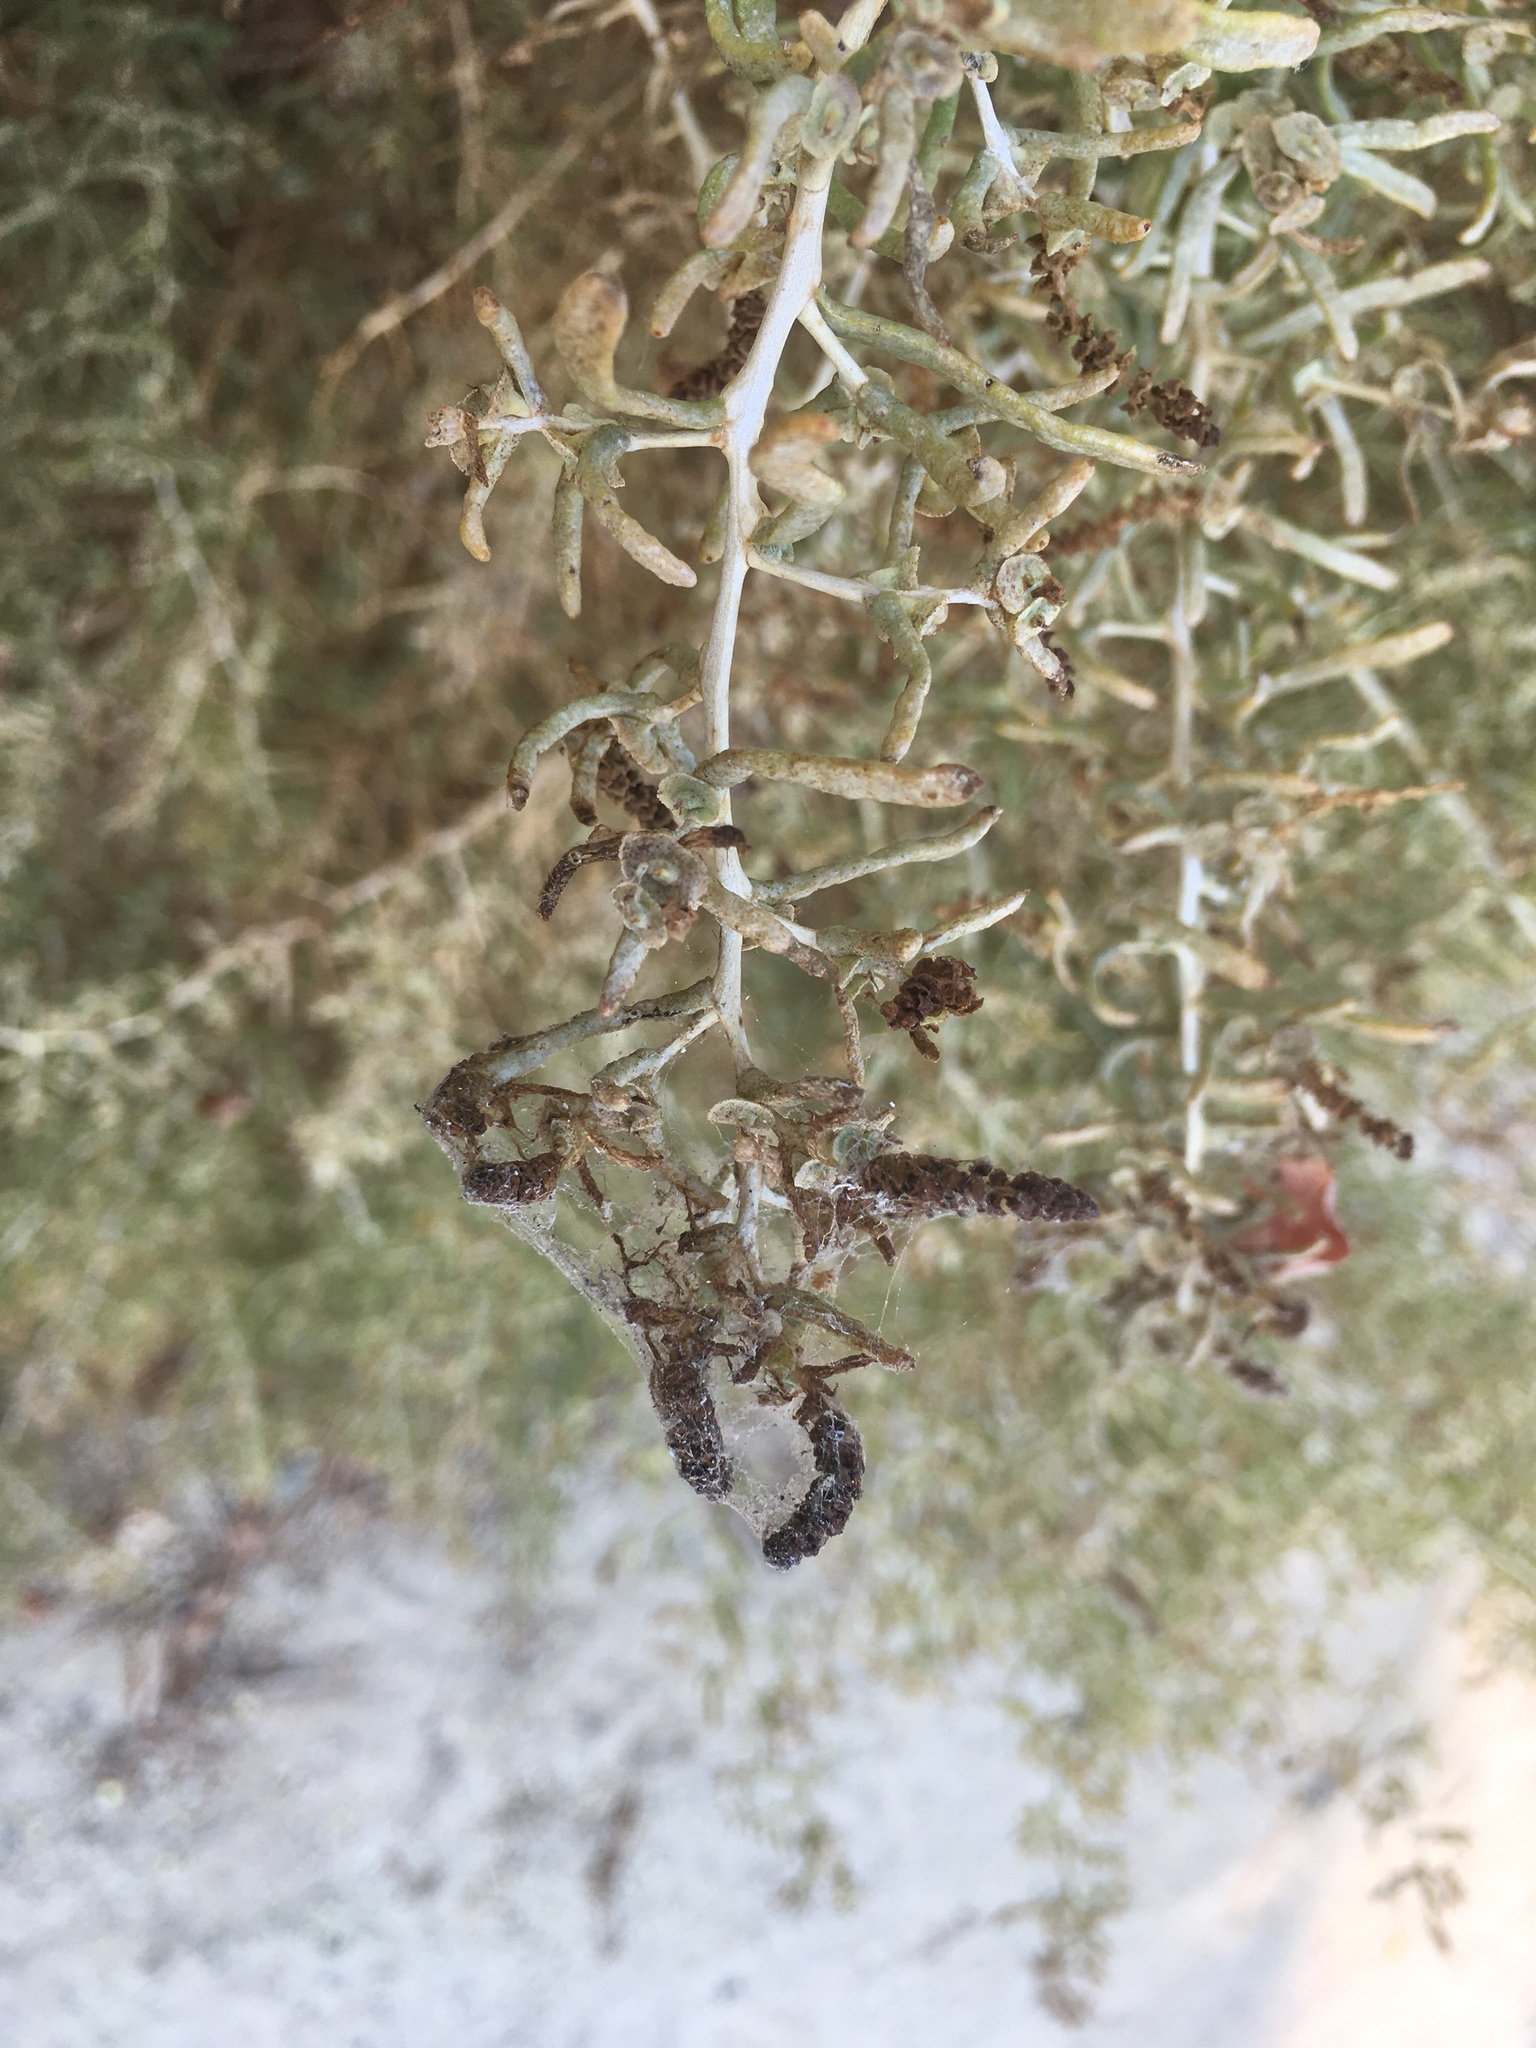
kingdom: Plantae
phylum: Tracheophyta
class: Magnoliopsida
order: Caryophyllales
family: Sarcobataceae
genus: Sarcobatus
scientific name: Sarcobatus vermiculatus
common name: Greasewood
